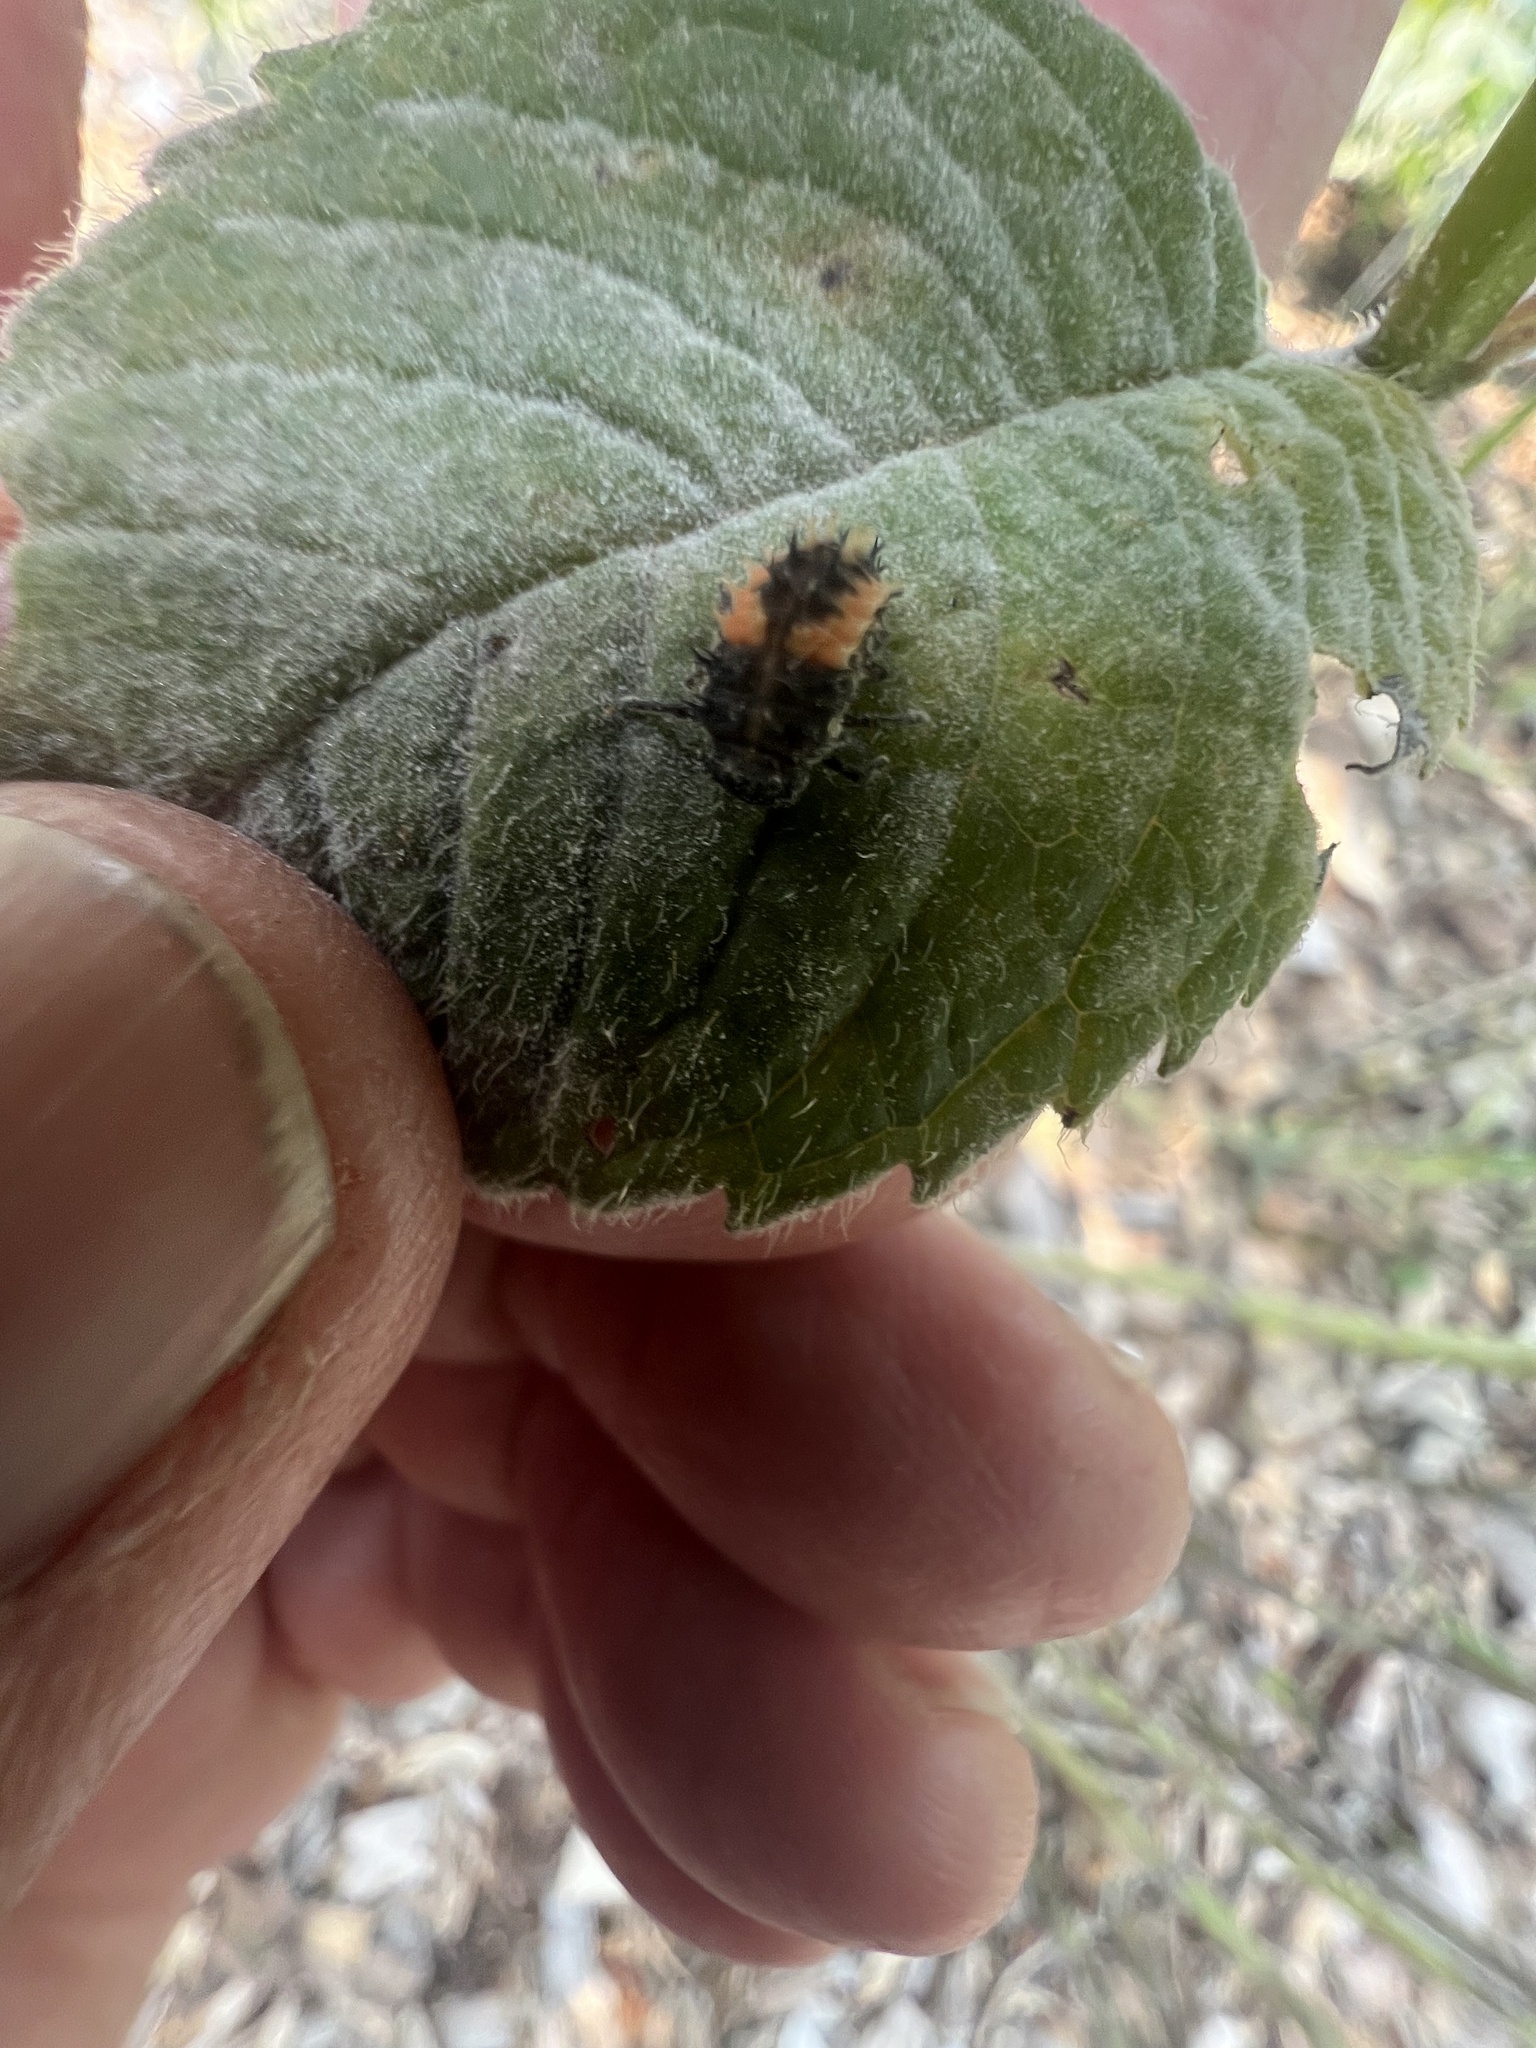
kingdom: Animalia
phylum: Arthropoda
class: Insecta
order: Coleoptera
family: Coccinellidae
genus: Harmonia
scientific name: Harmonia axyridis
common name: Harlequin ladybird
